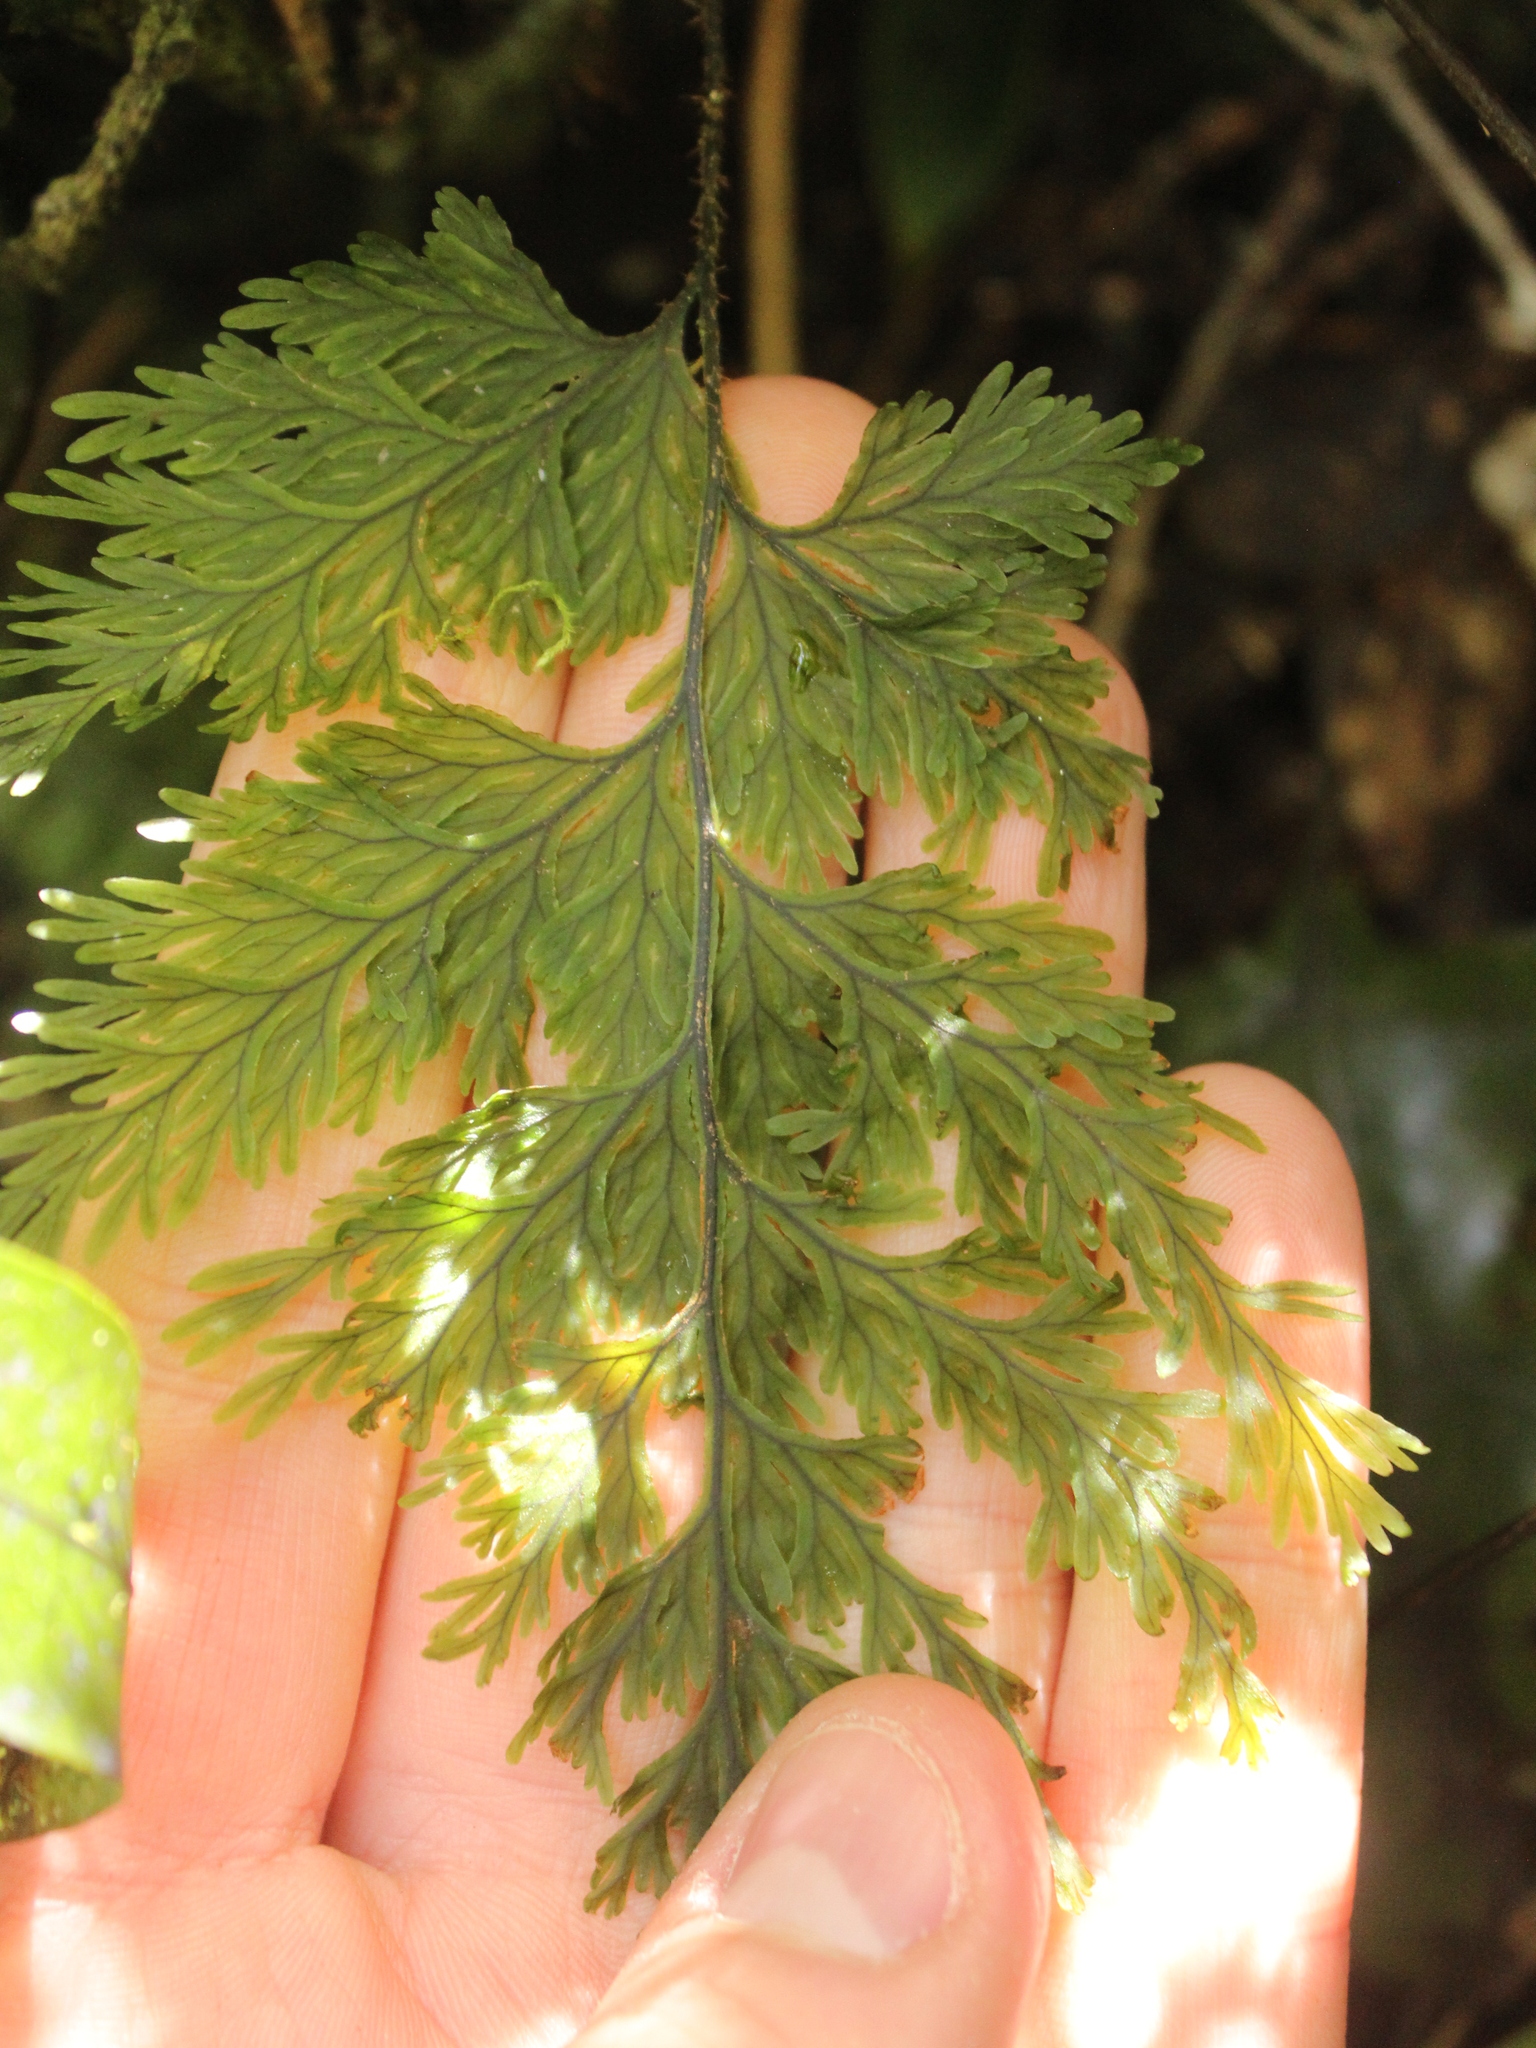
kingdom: Plantae
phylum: Tracheophyta
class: Polypodiopsida
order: Hymenophyllales
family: Hymenophyllaceae
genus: Hymenophyllum
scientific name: Hymenophyllum scabrum
